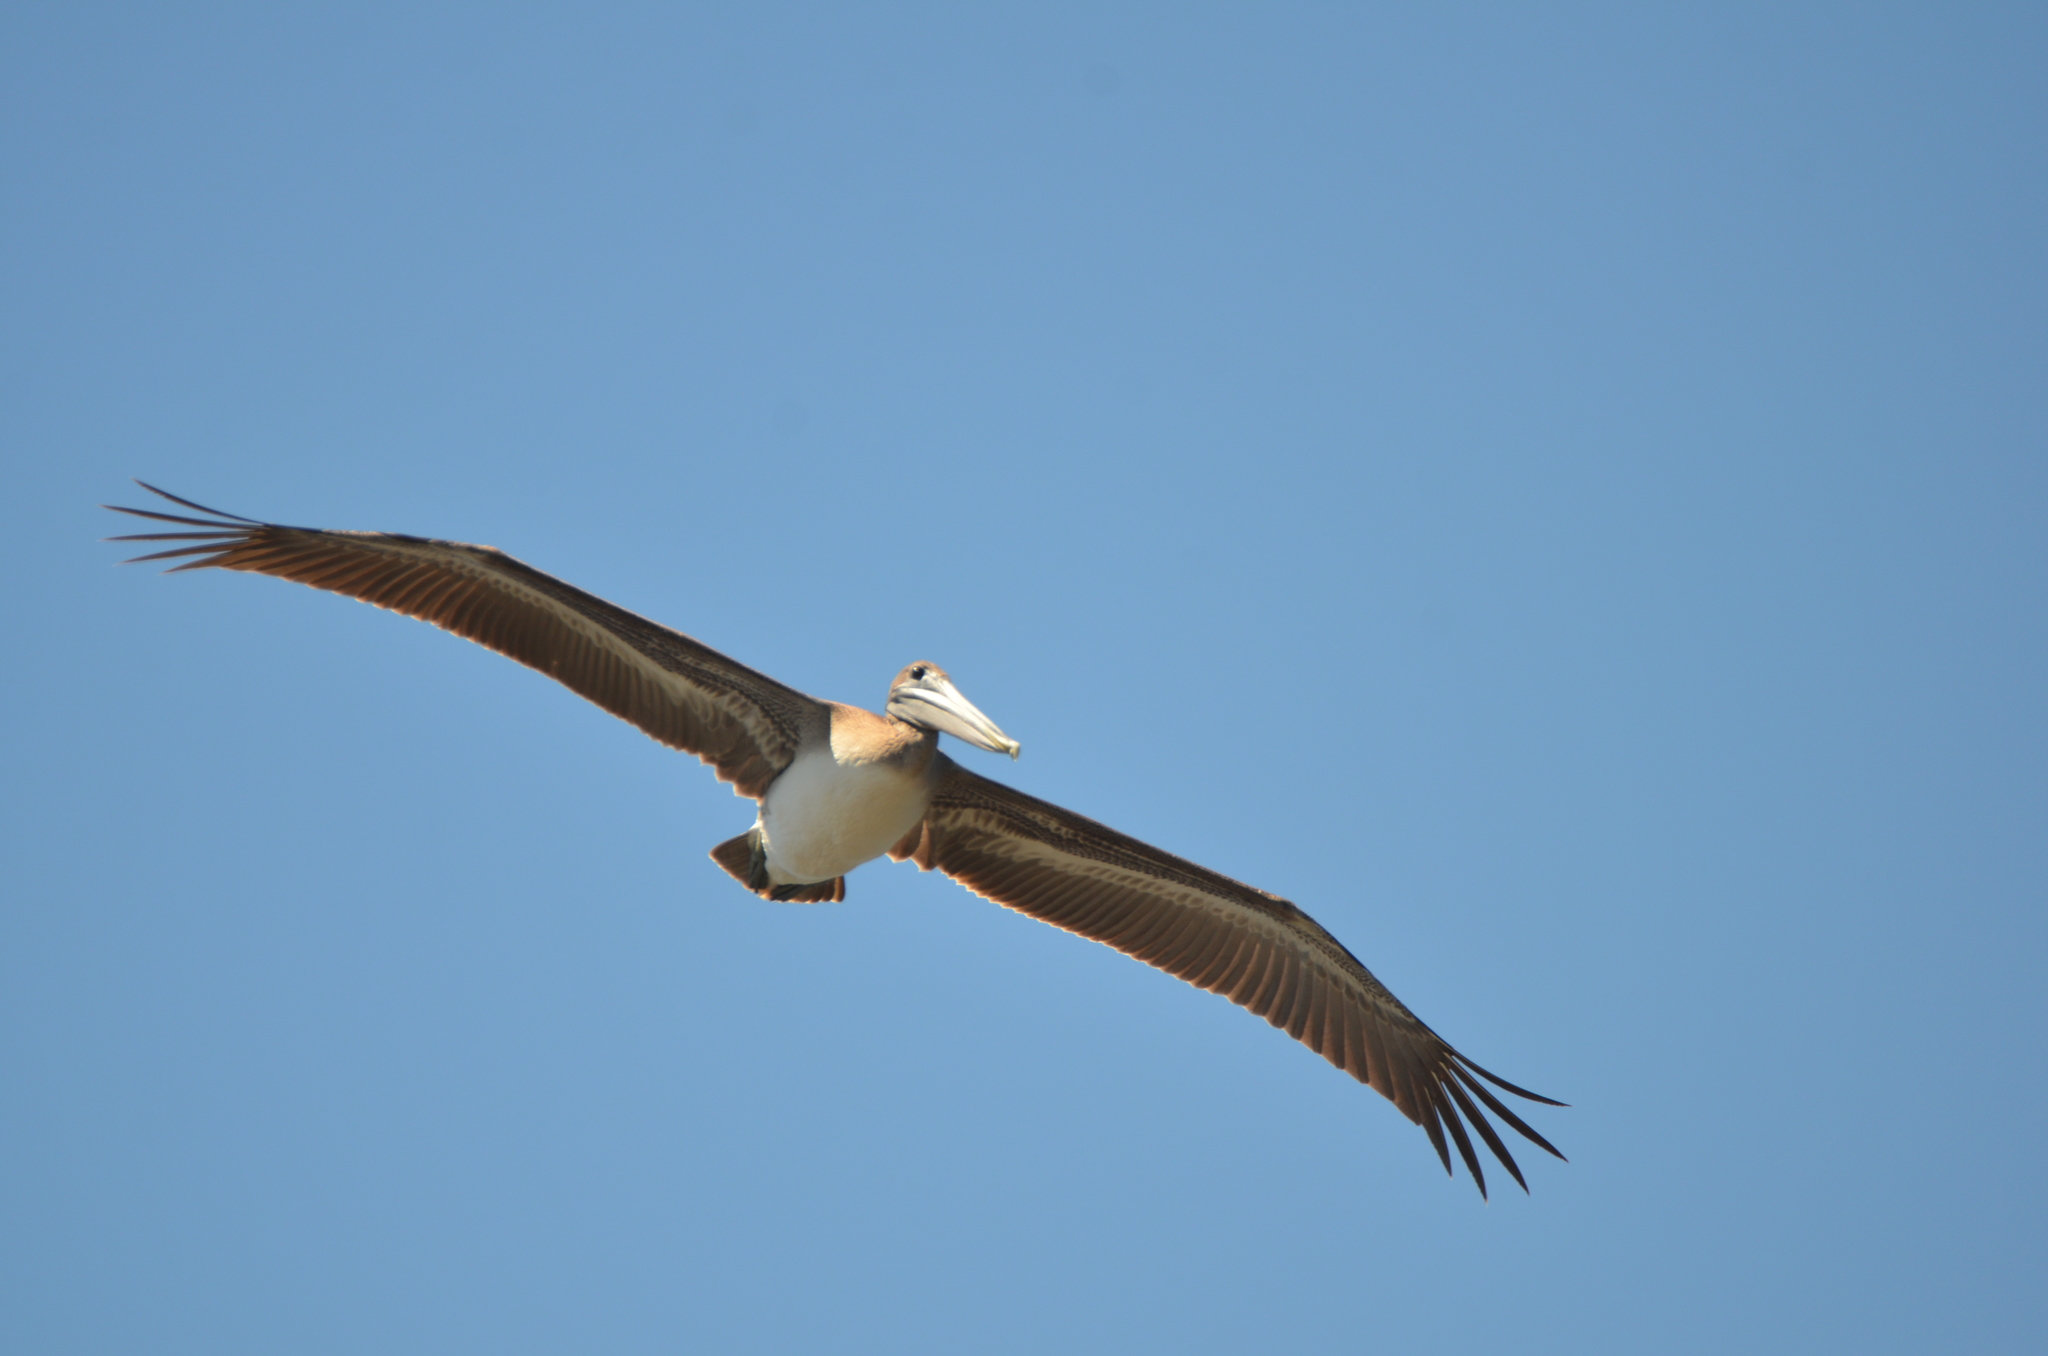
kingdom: Animalia
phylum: Chordata
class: Aves
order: Pelecaniformes
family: Pelecanidae
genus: Pelecanus
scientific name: Pelecanus occidentalis
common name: Brown pelican
